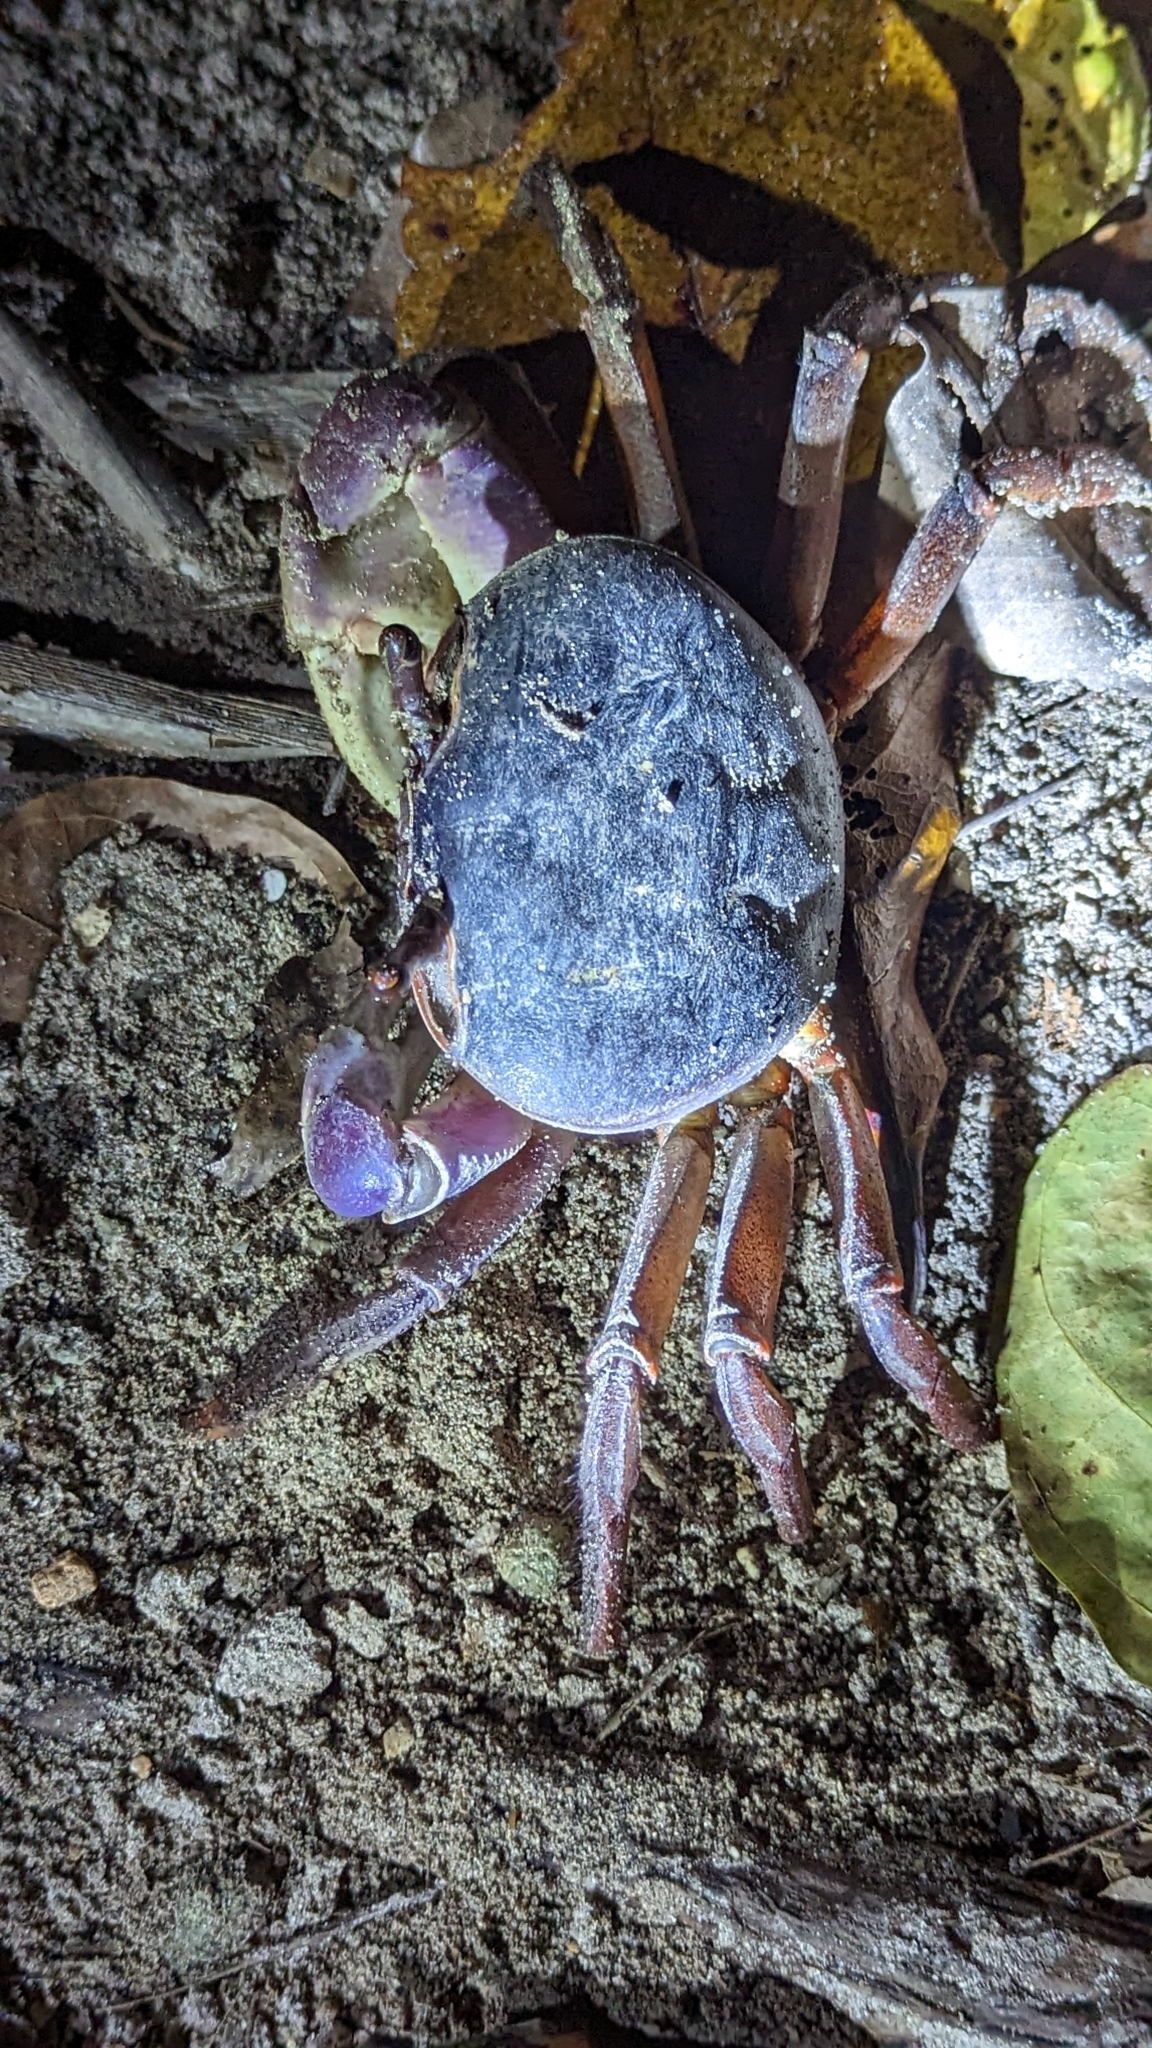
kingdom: Animalia
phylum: Arthropoda
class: Malacostraca
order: Decapoda
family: Gecarcinidae
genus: Cardisoma
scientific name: Cardisoma carnifex
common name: Brown land crab
